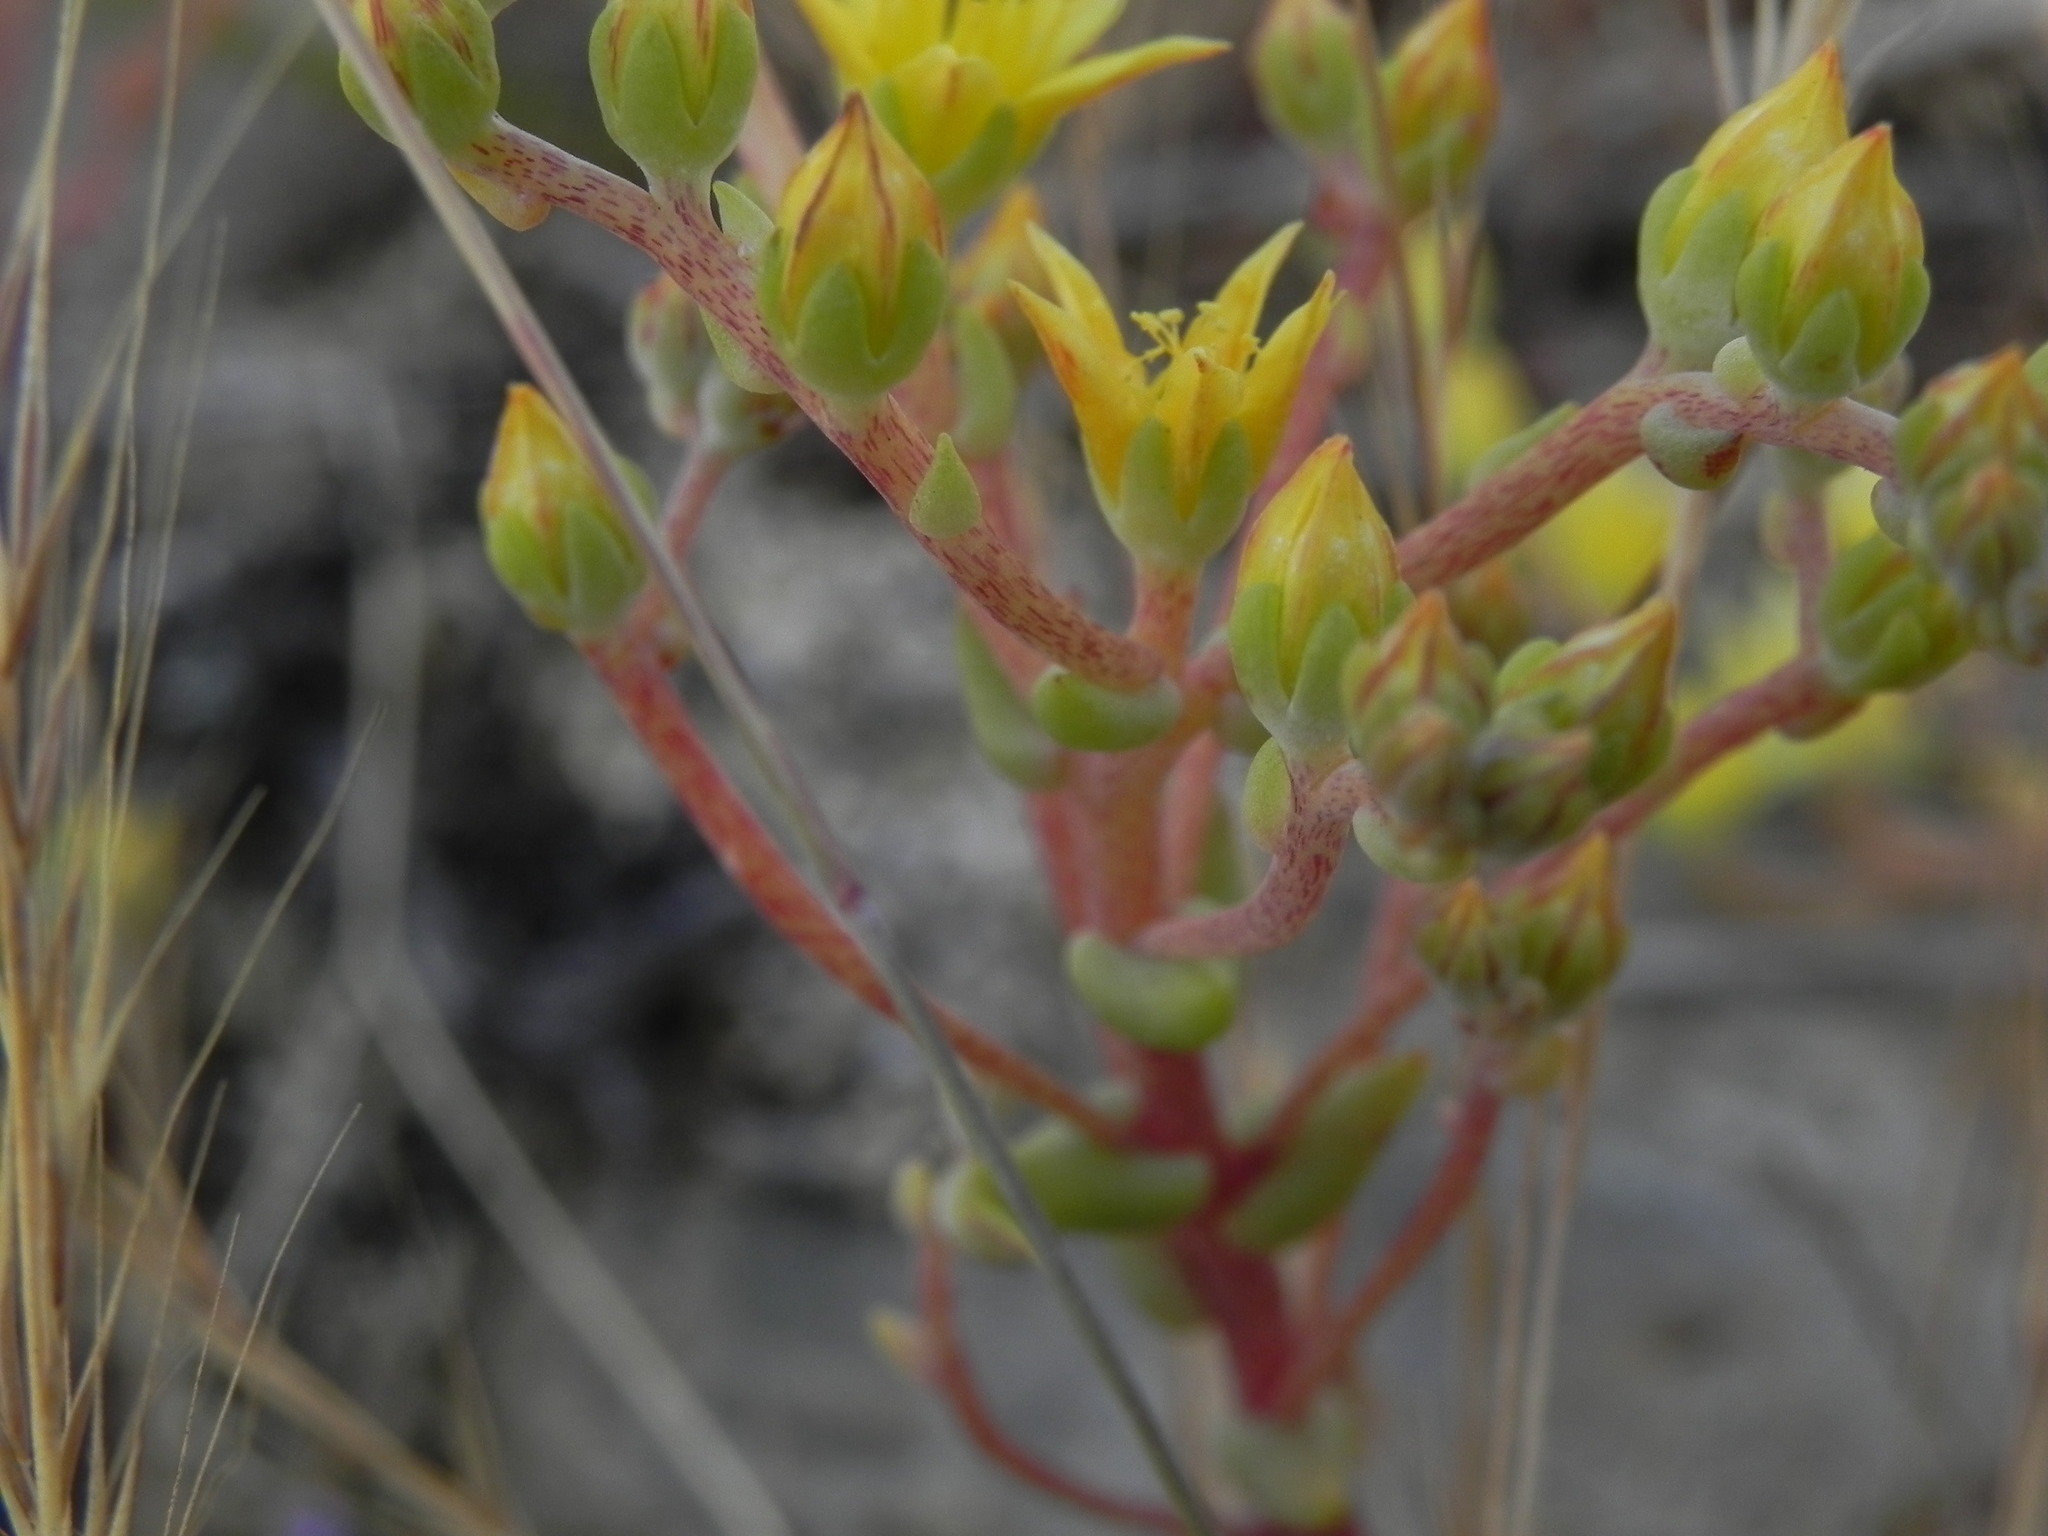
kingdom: Plantae
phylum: Tracheophyta
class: Magnoliopsida
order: Saxifragales
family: Crassulaceae
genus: Dudleya
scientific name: Dudleya variegata
